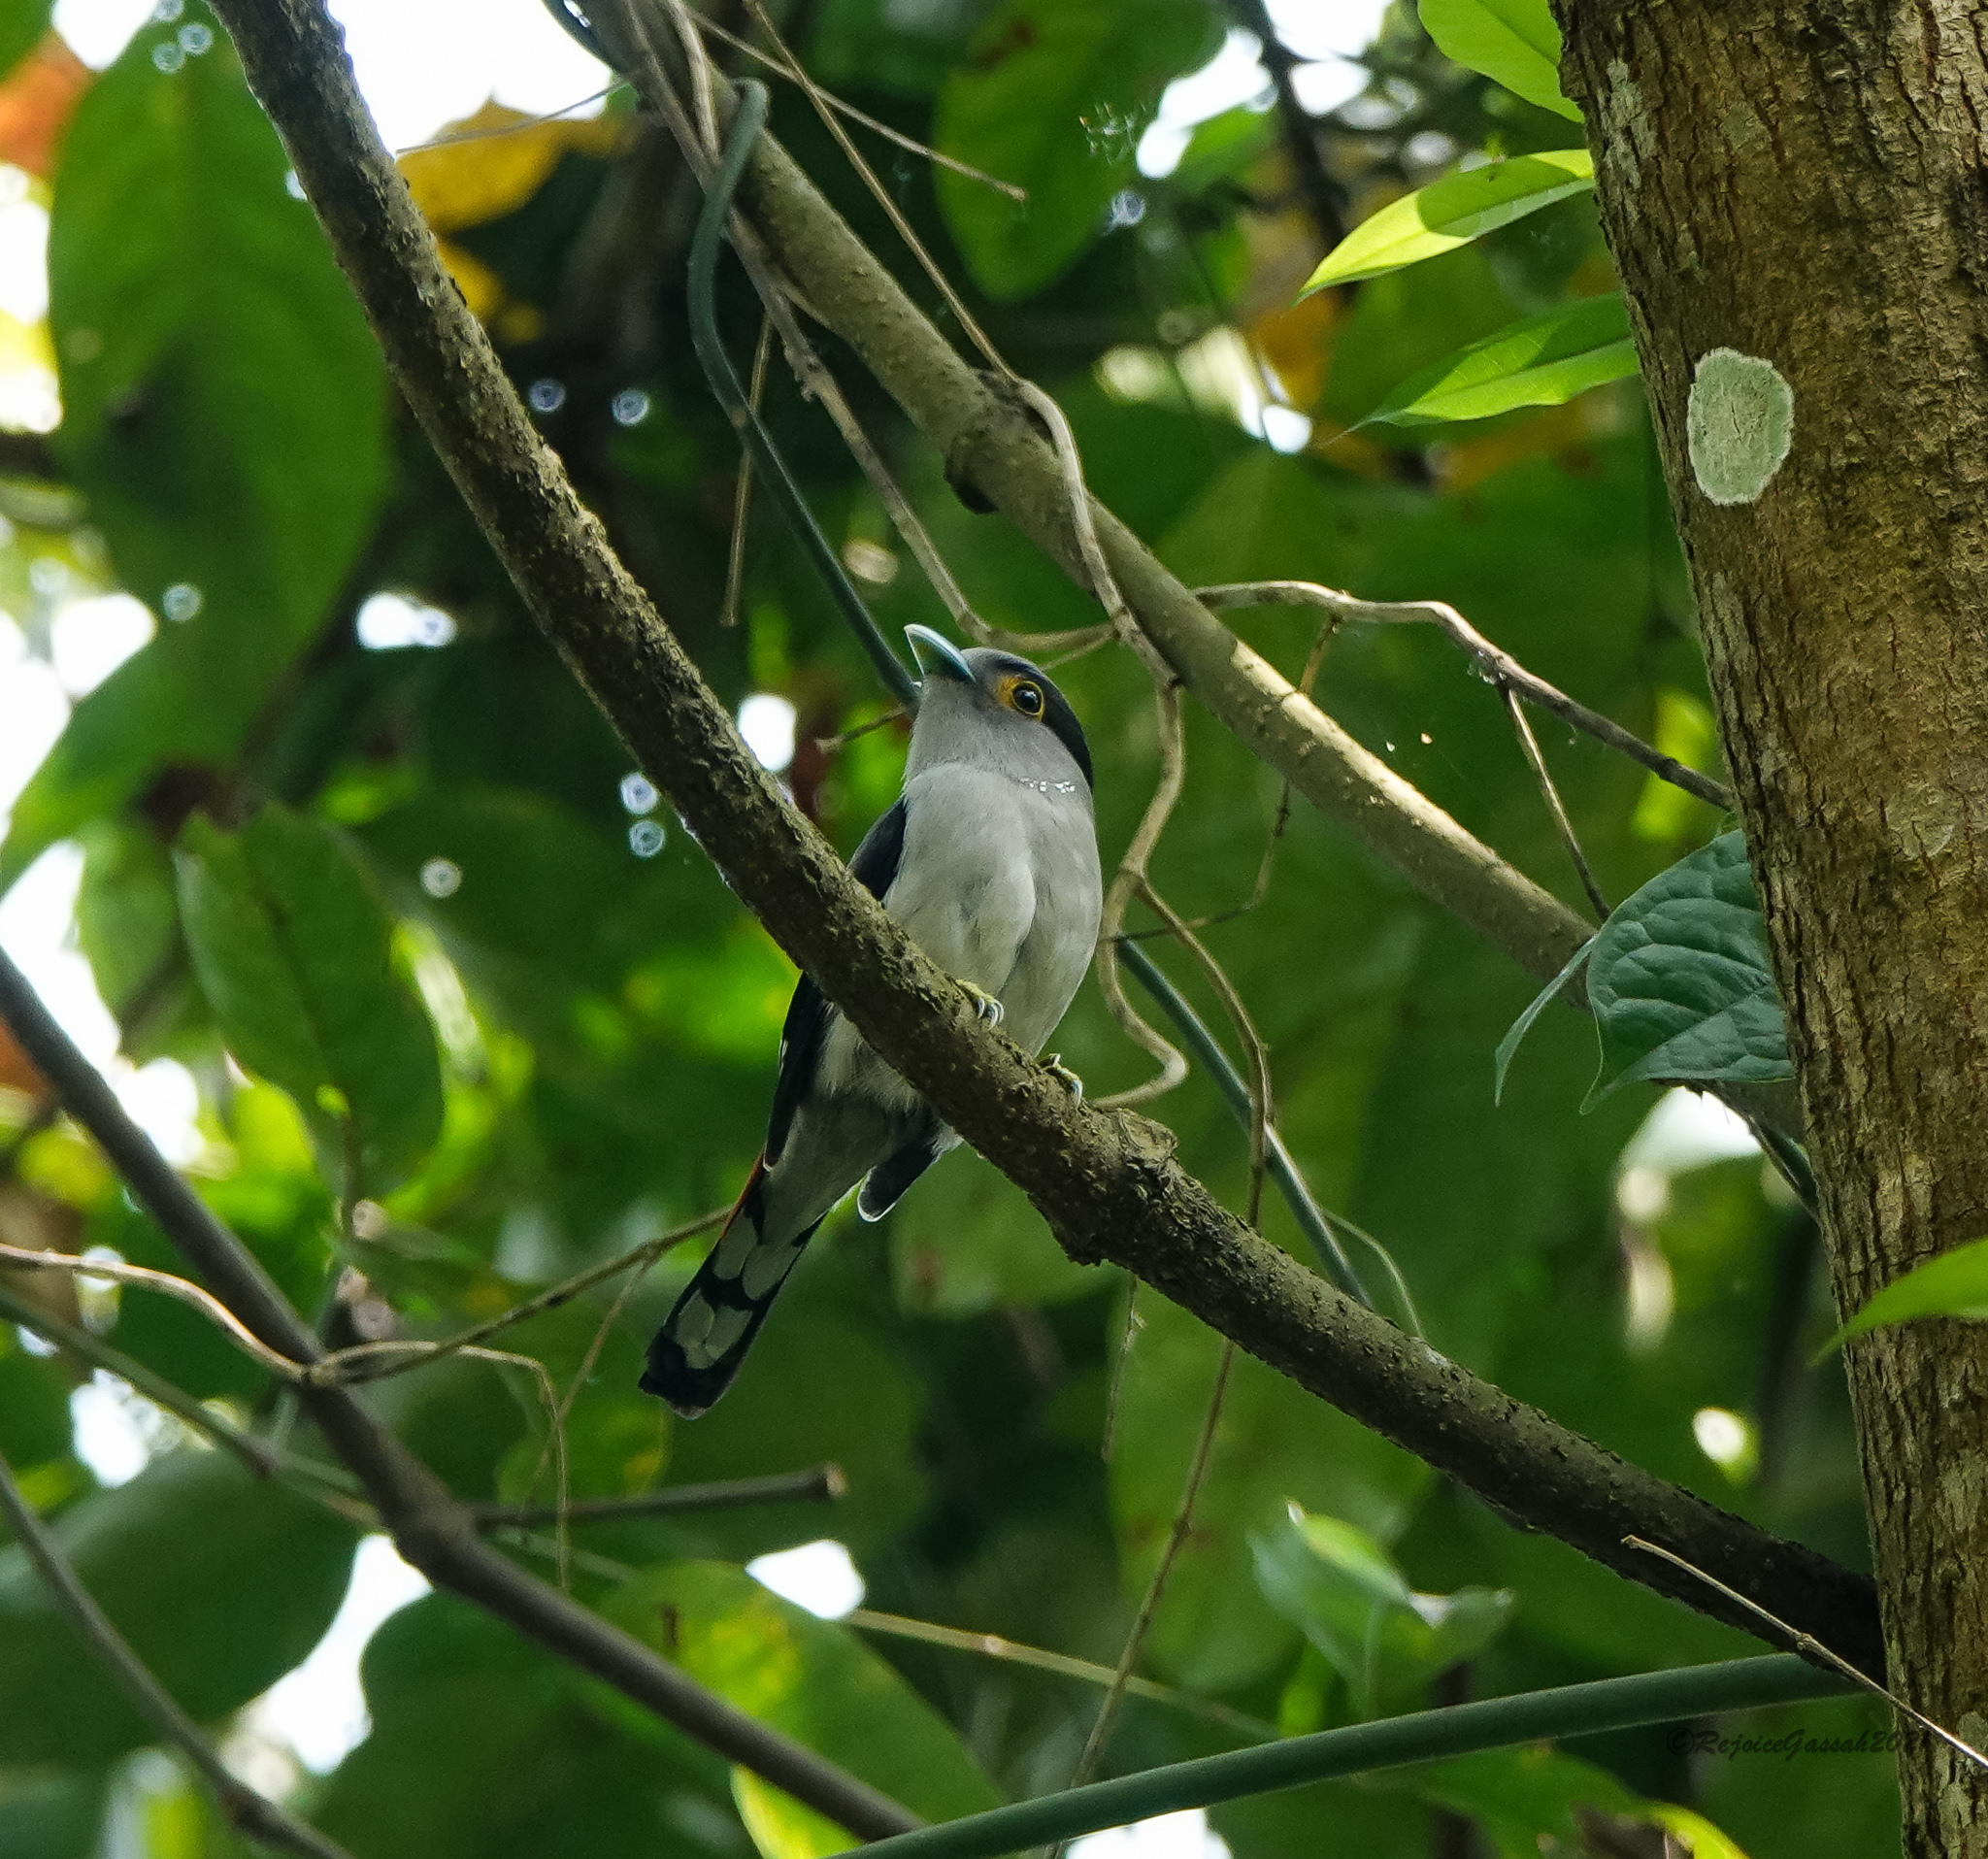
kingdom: Animalia
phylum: Chordata
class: Aves
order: Passeriformes
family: Eurylaimidae
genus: Serilophus
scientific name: Serilophus lunatus
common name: Silver-breasted broadbill
